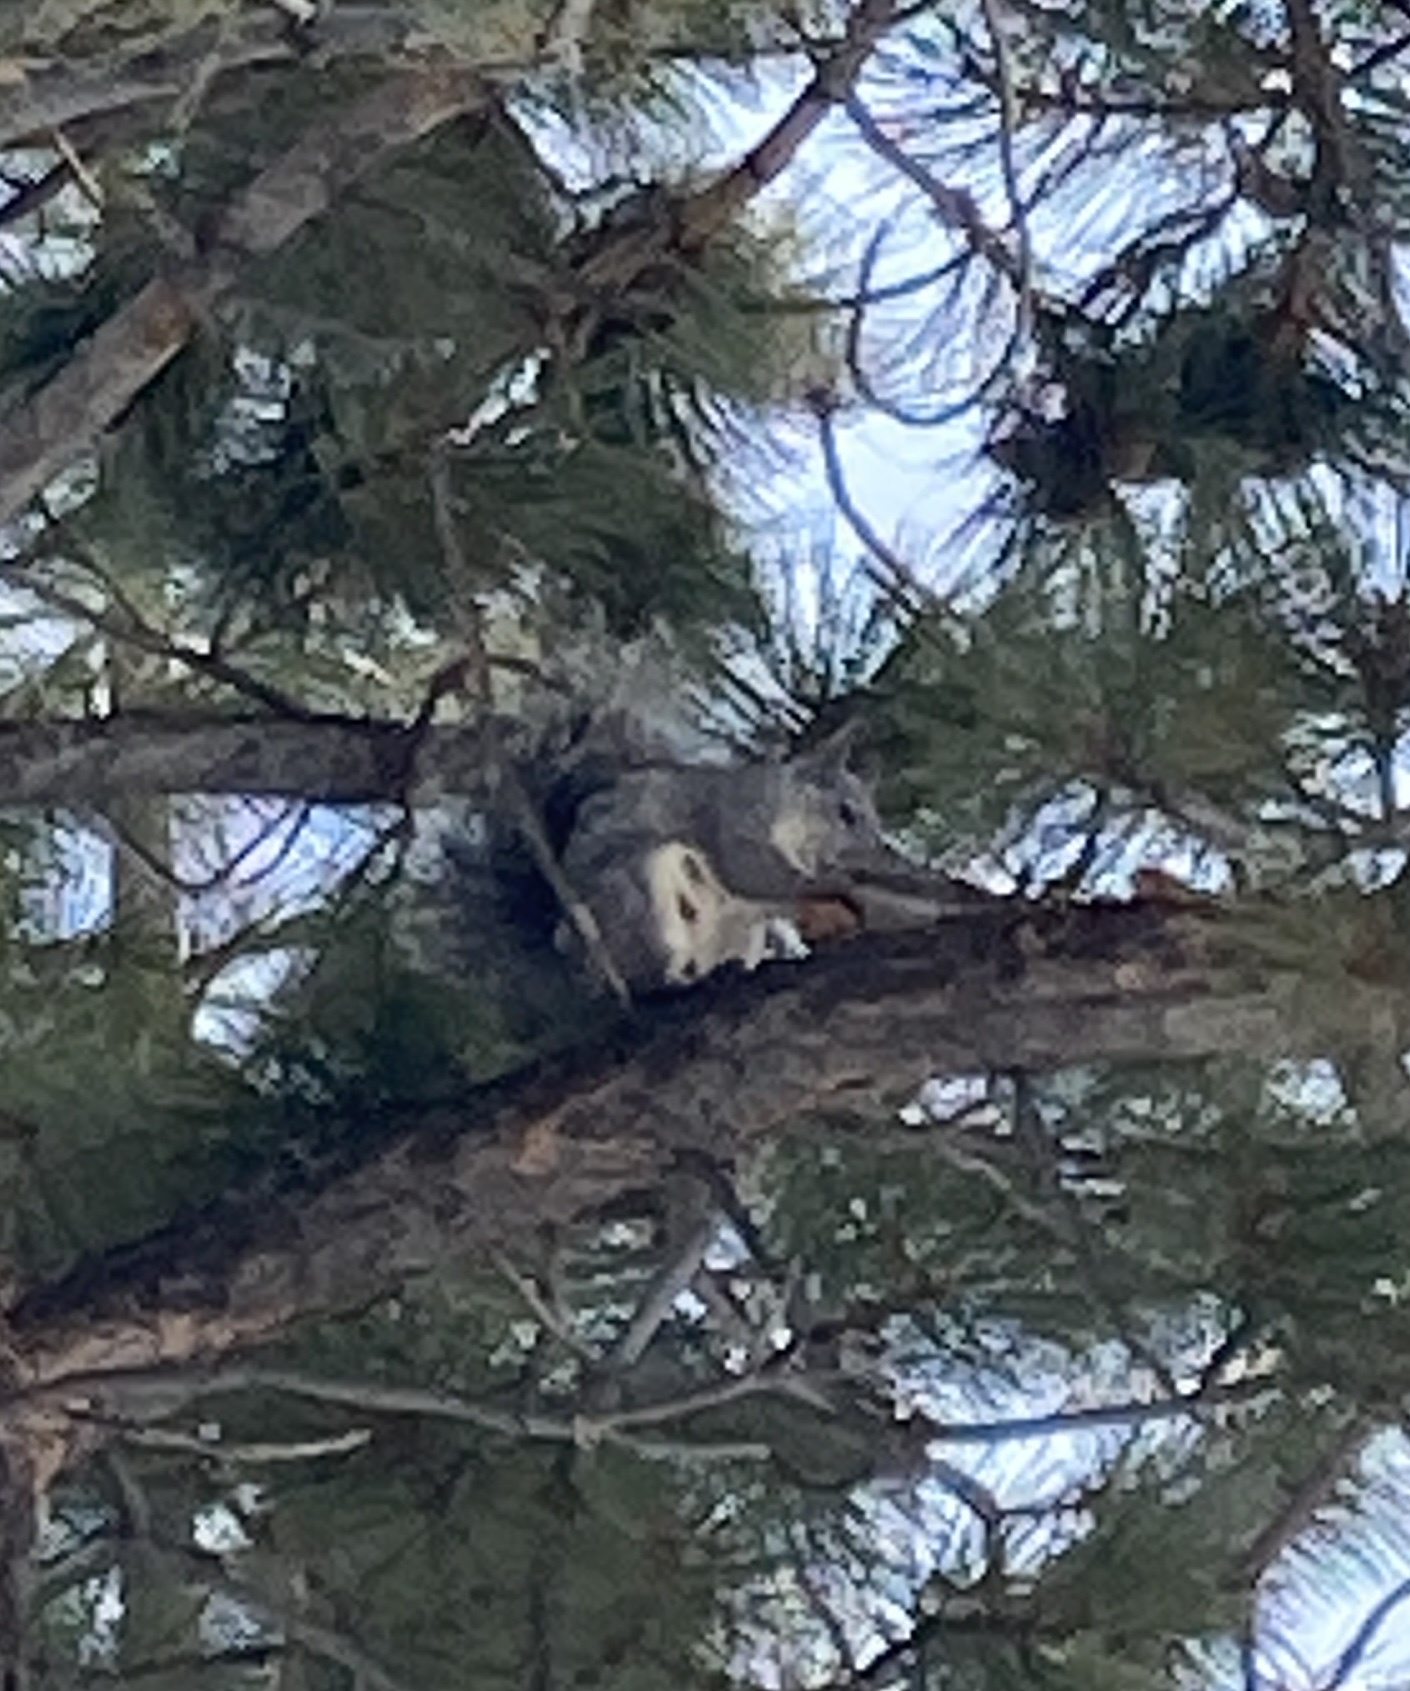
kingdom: Animalia
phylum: Chordata
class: Mammalia
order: Rodentia
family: Sciuridae
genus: Sciurus
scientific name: Sciurus griseus
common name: Western gray squirrel
